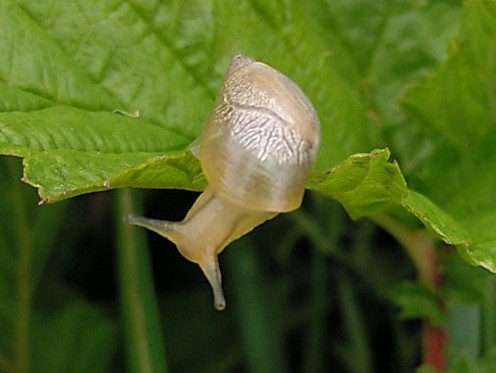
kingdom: Animalia
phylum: Mollusca
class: Gastropoda
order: Stylommatophora
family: Succineidae
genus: Succinea
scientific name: Succinea putris
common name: European ambersnail
